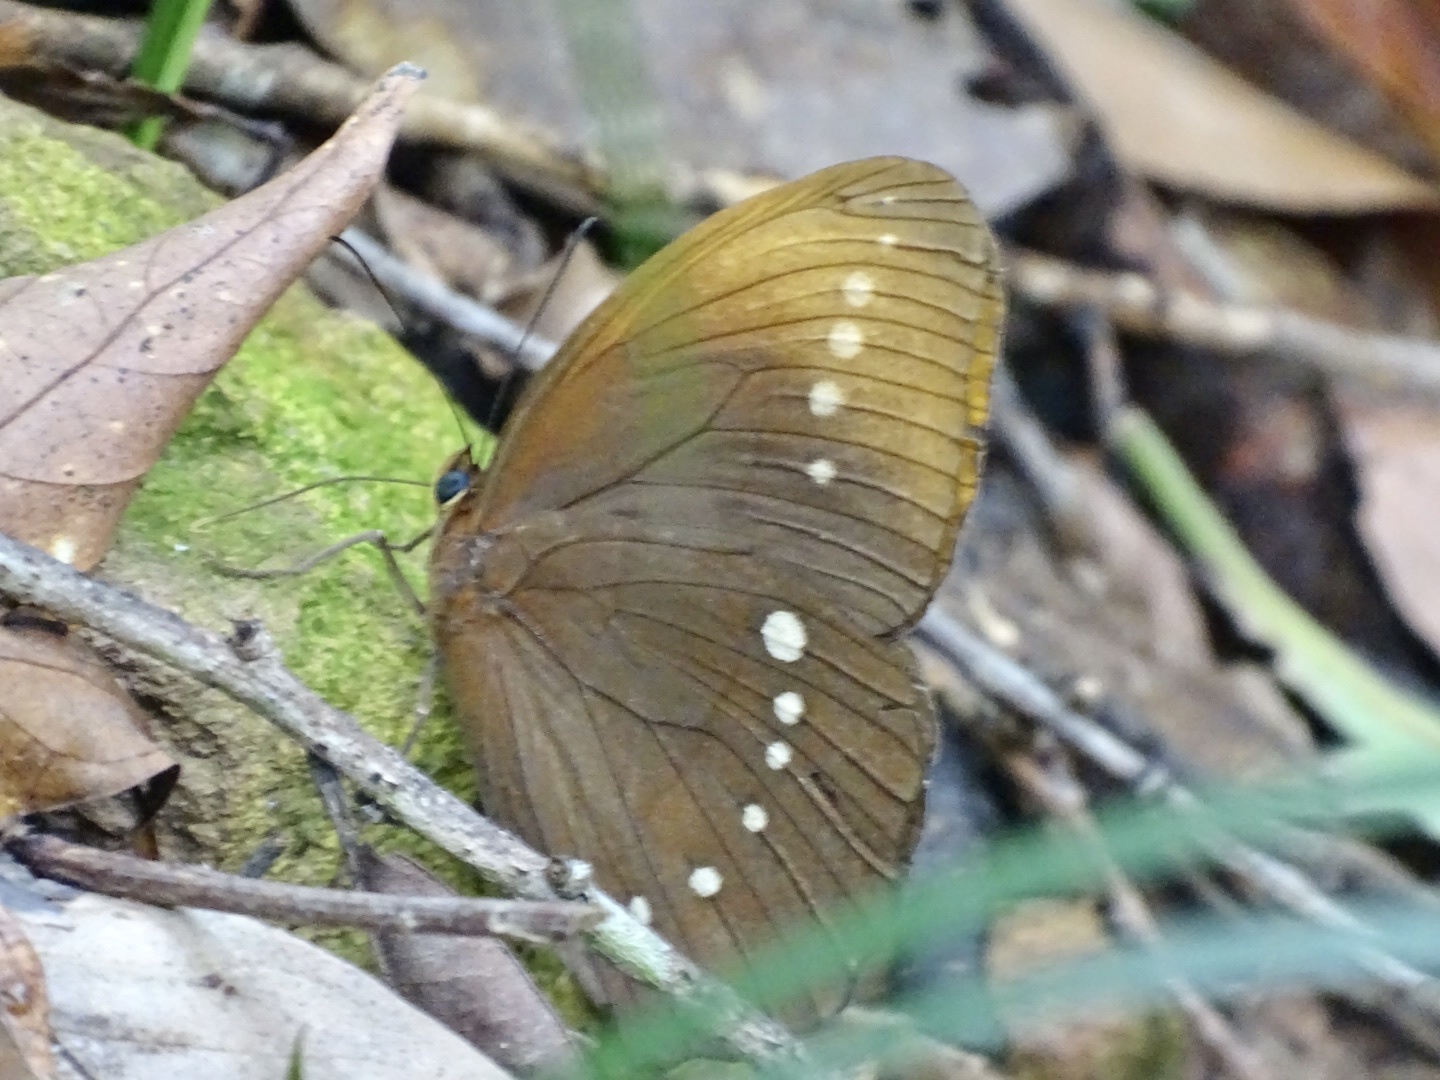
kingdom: Animalia
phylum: Arthropoda
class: Insecta
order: Lepidoptera
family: Nymphalidae
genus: Faunis
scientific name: Faunis eumeus
